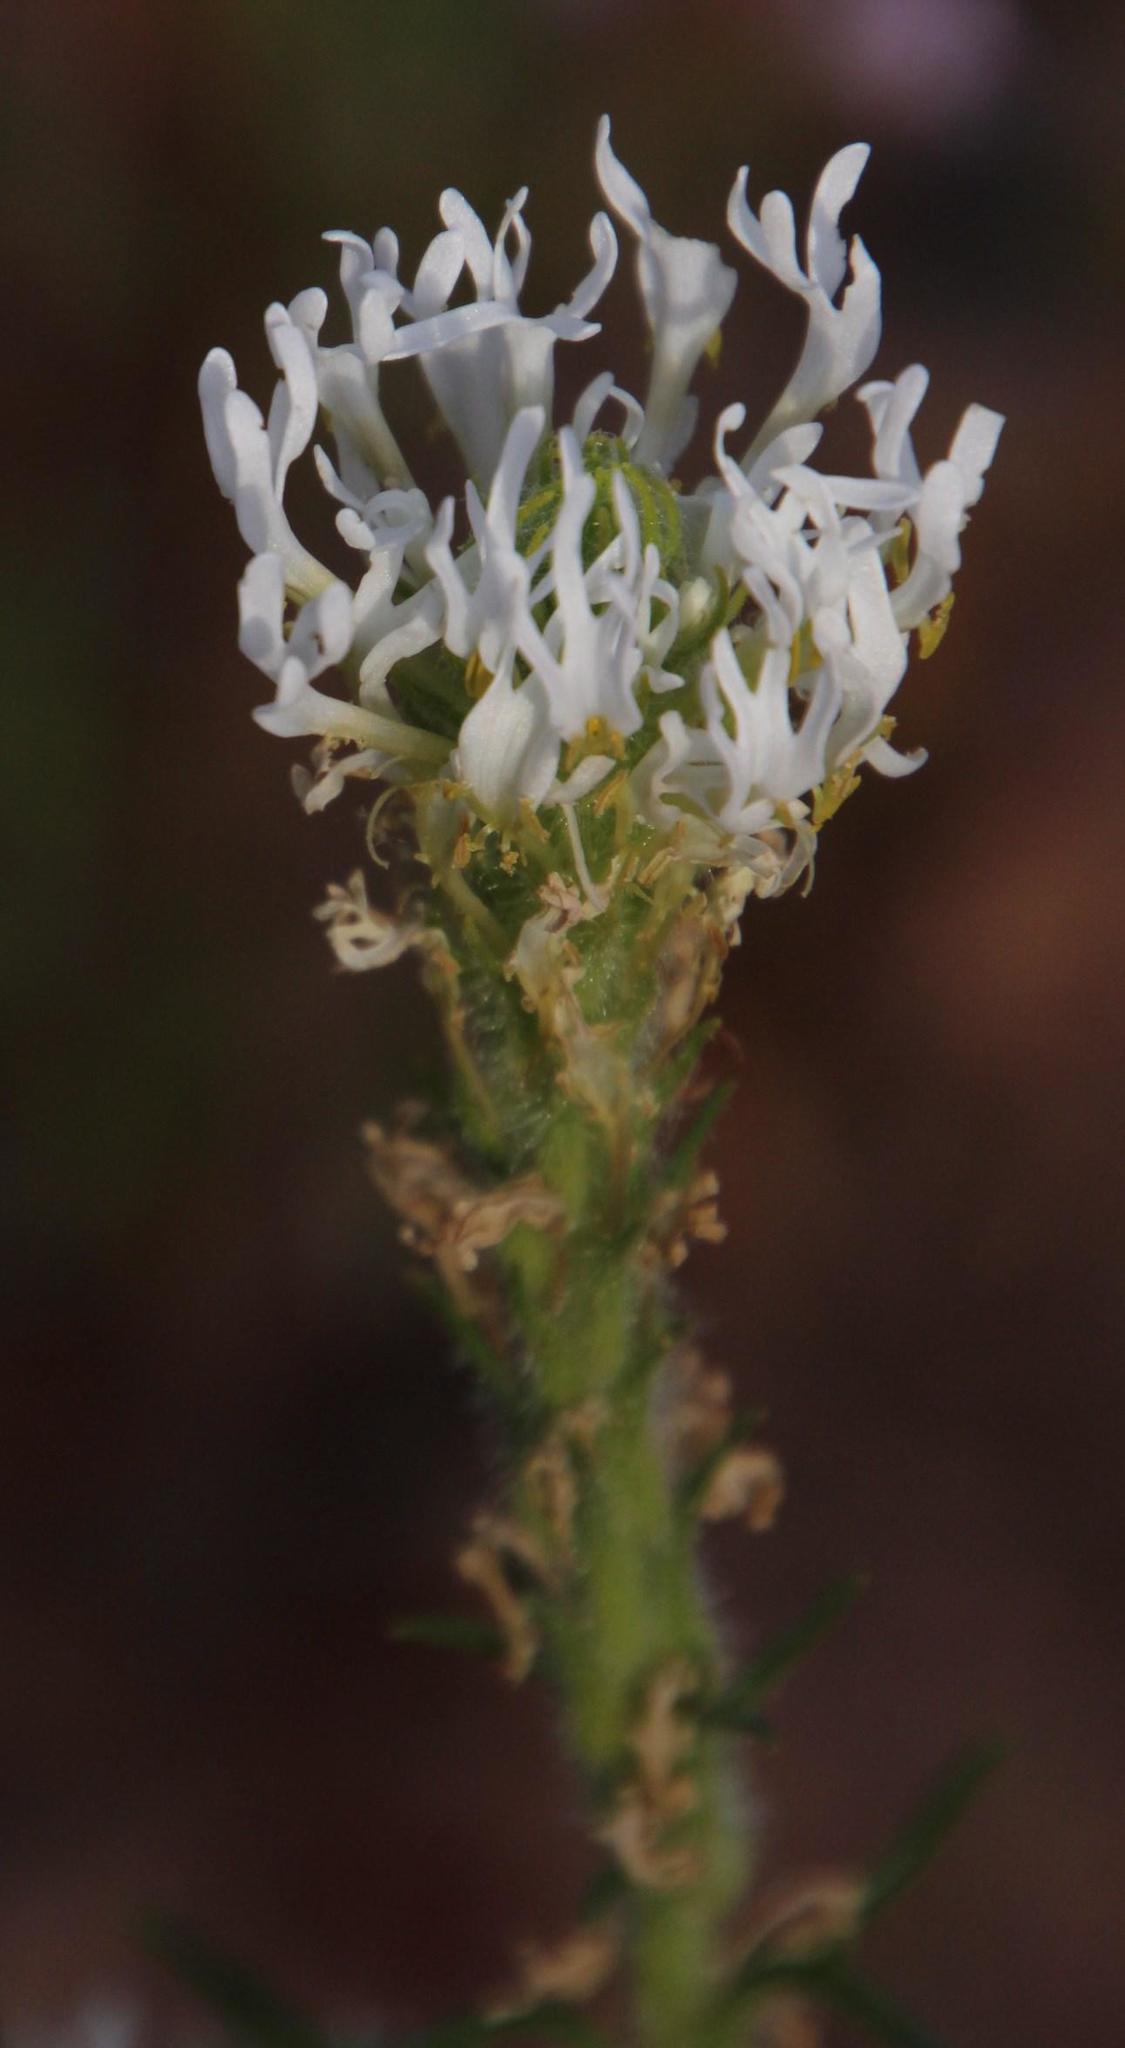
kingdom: Plantae
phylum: Tracheophyta
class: Magnoliopsida
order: Lamiales
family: Scrophulariaceae
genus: Dischisma
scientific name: Dischisma ciliatum
